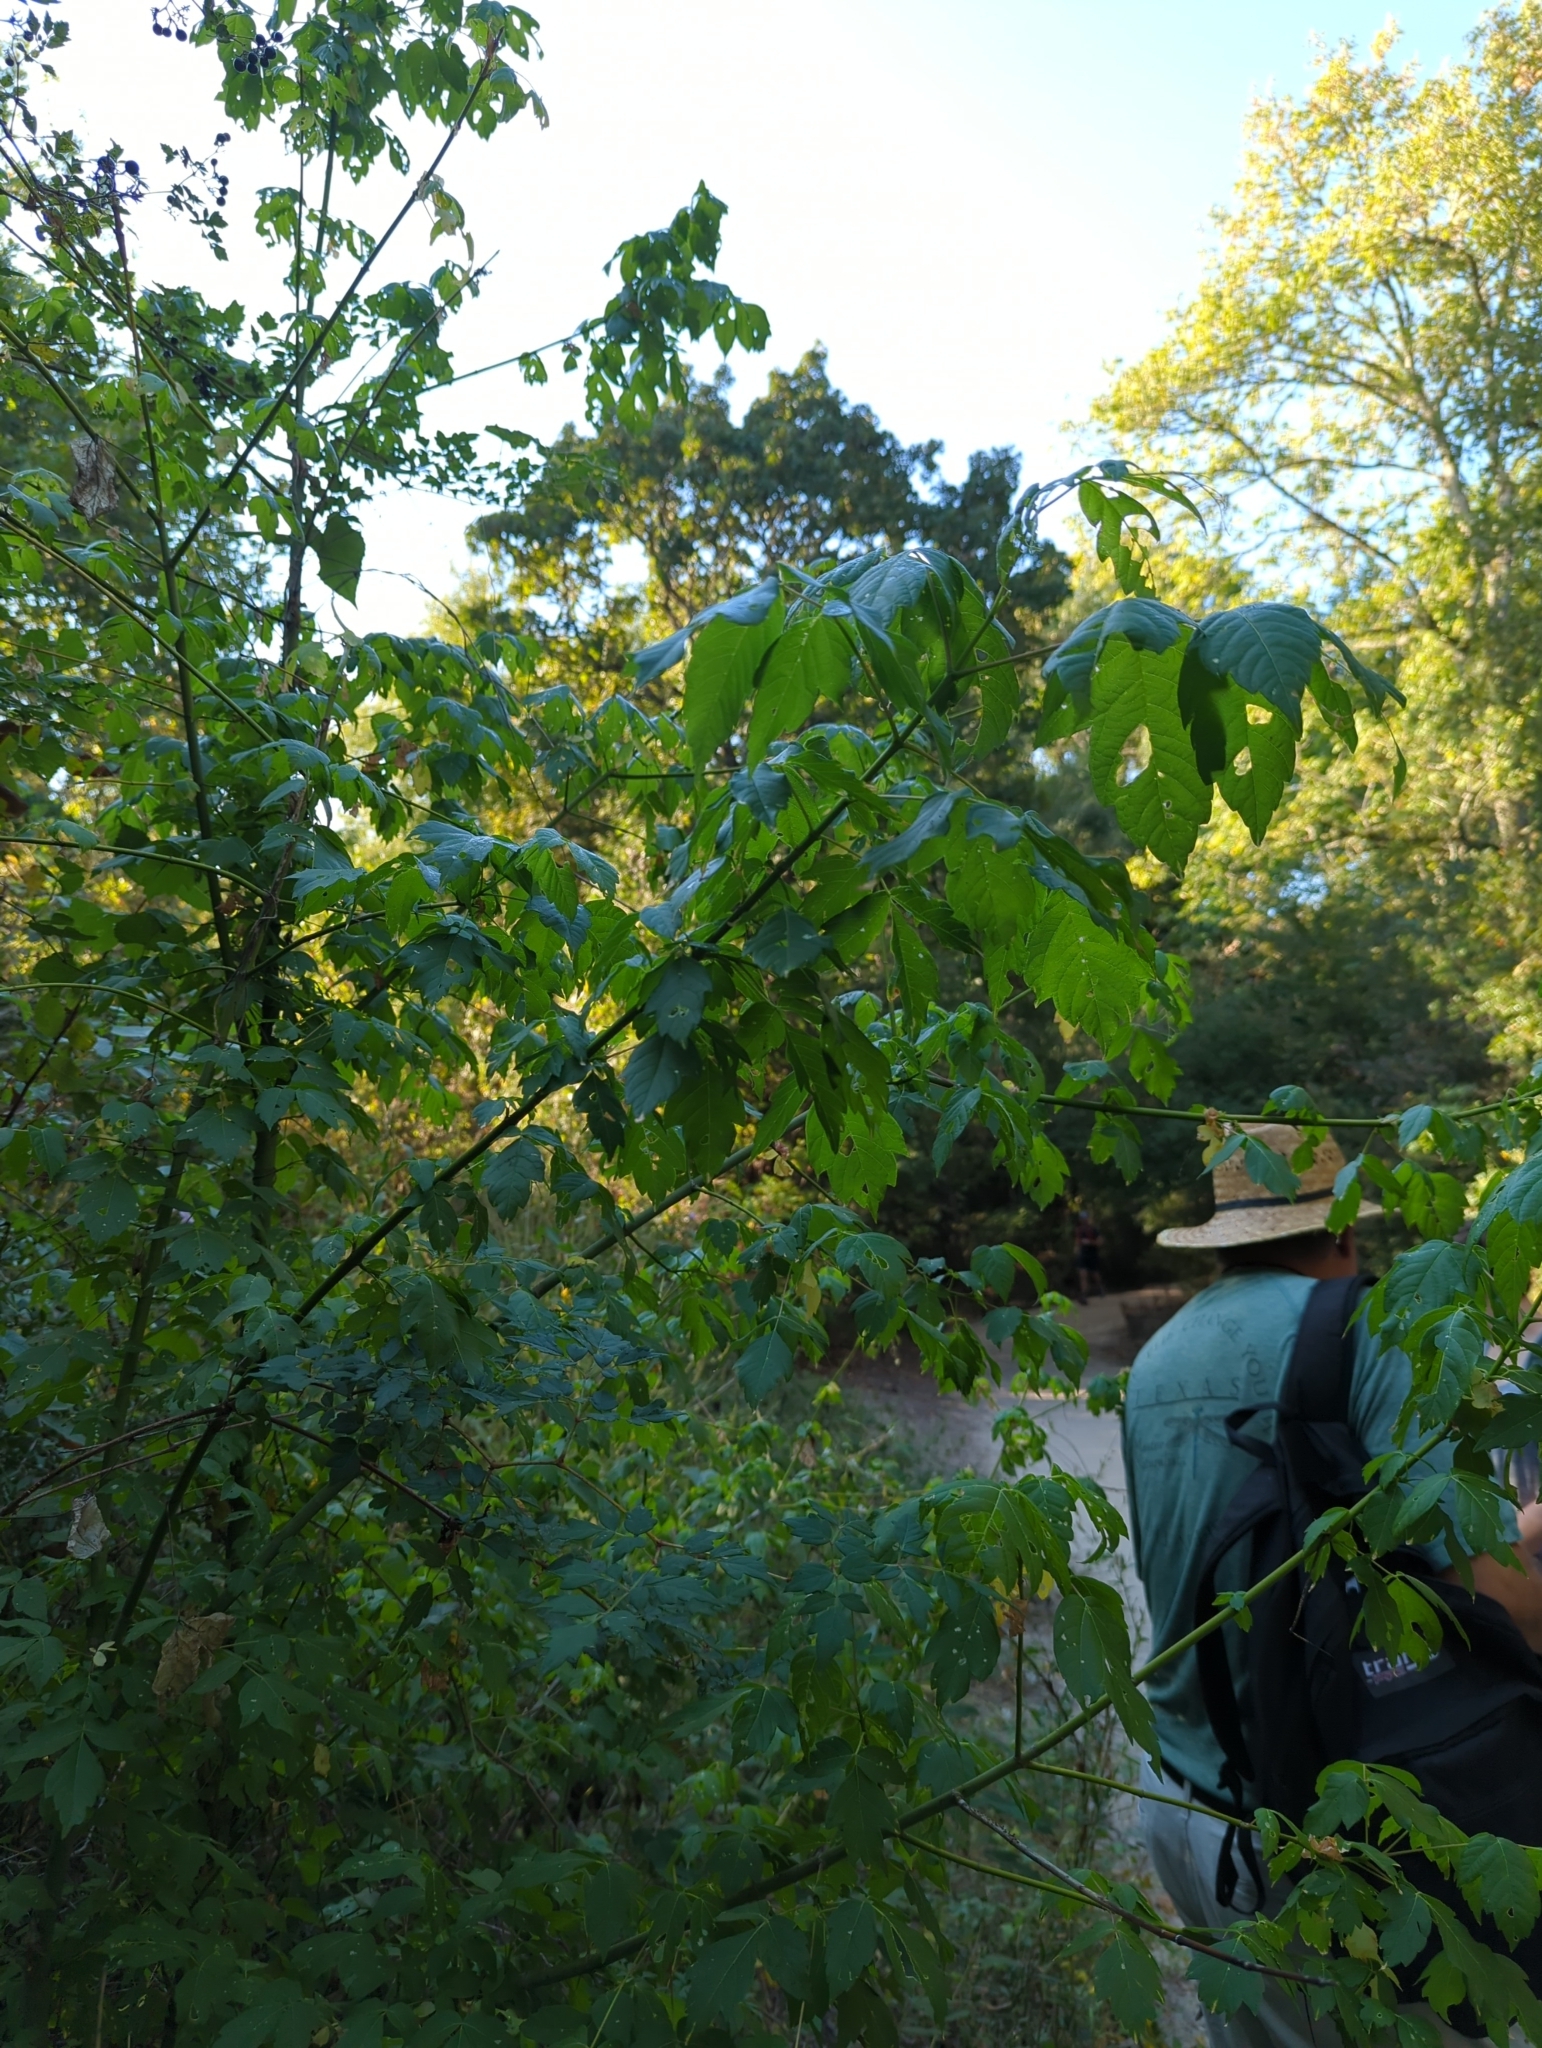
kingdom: Plantae
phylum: Tracheophyta
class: Magnoliopsida
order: Sapindales
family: Sapindaceae
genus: Acer
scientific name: Acer negundo
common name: Ashleaf maple
